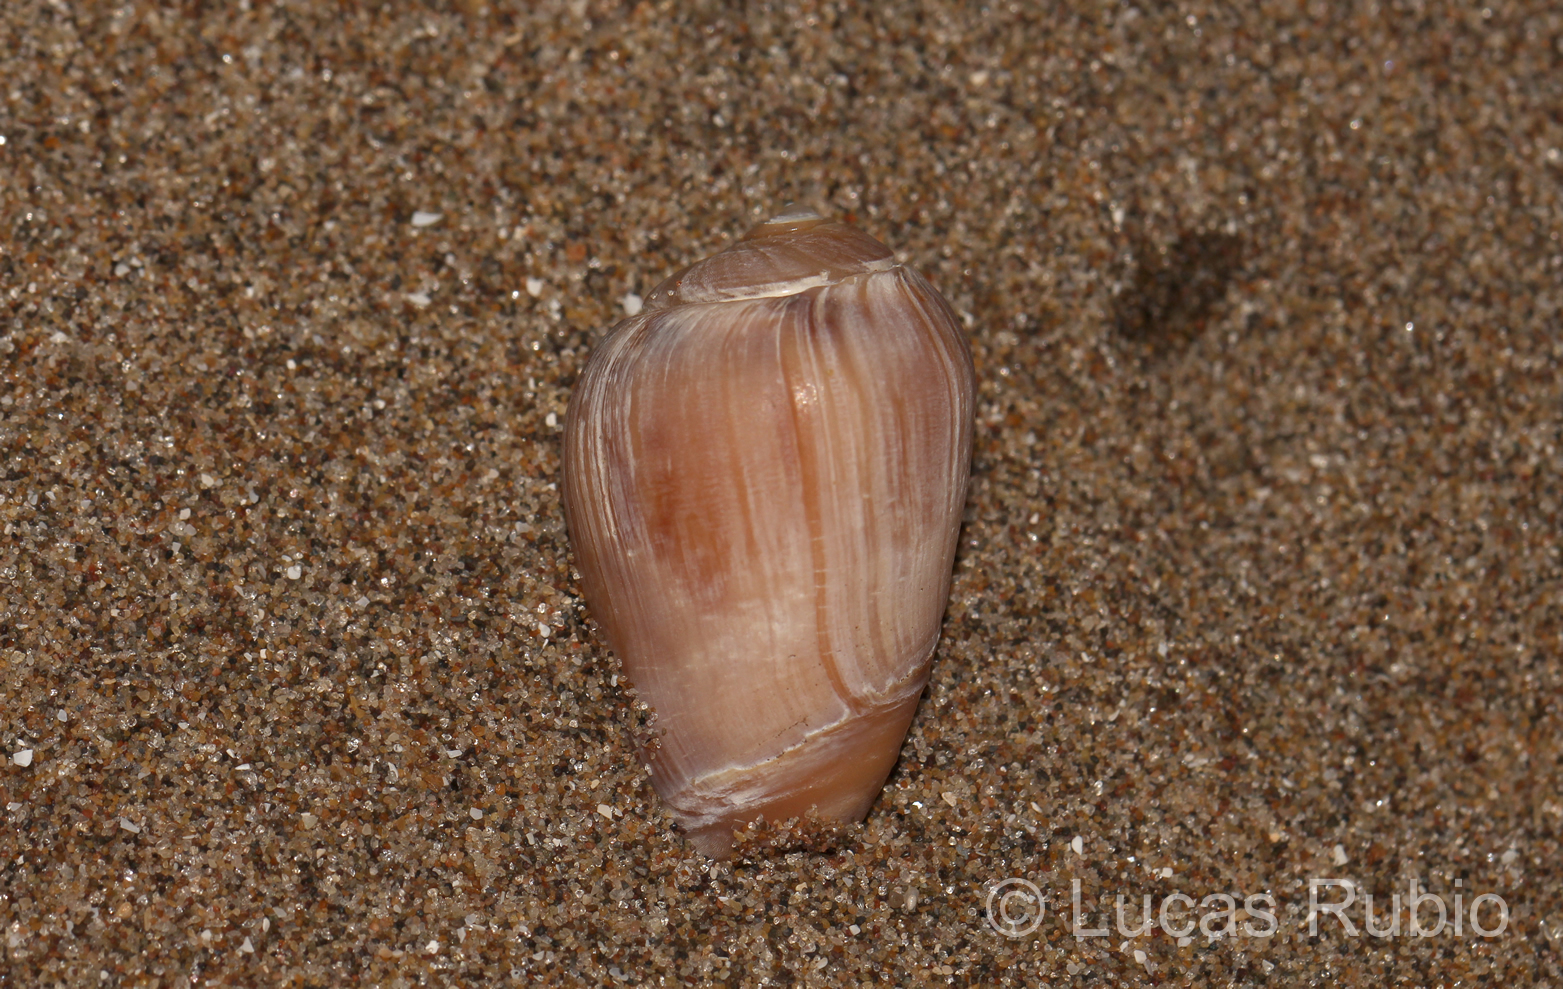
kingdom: Animalia
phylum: Mollusca
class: Gastropoda
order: Neogastropoda
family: Olividae
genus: Olivancillaria
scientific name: Olivancillaria urceus
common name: Bear ancilla
